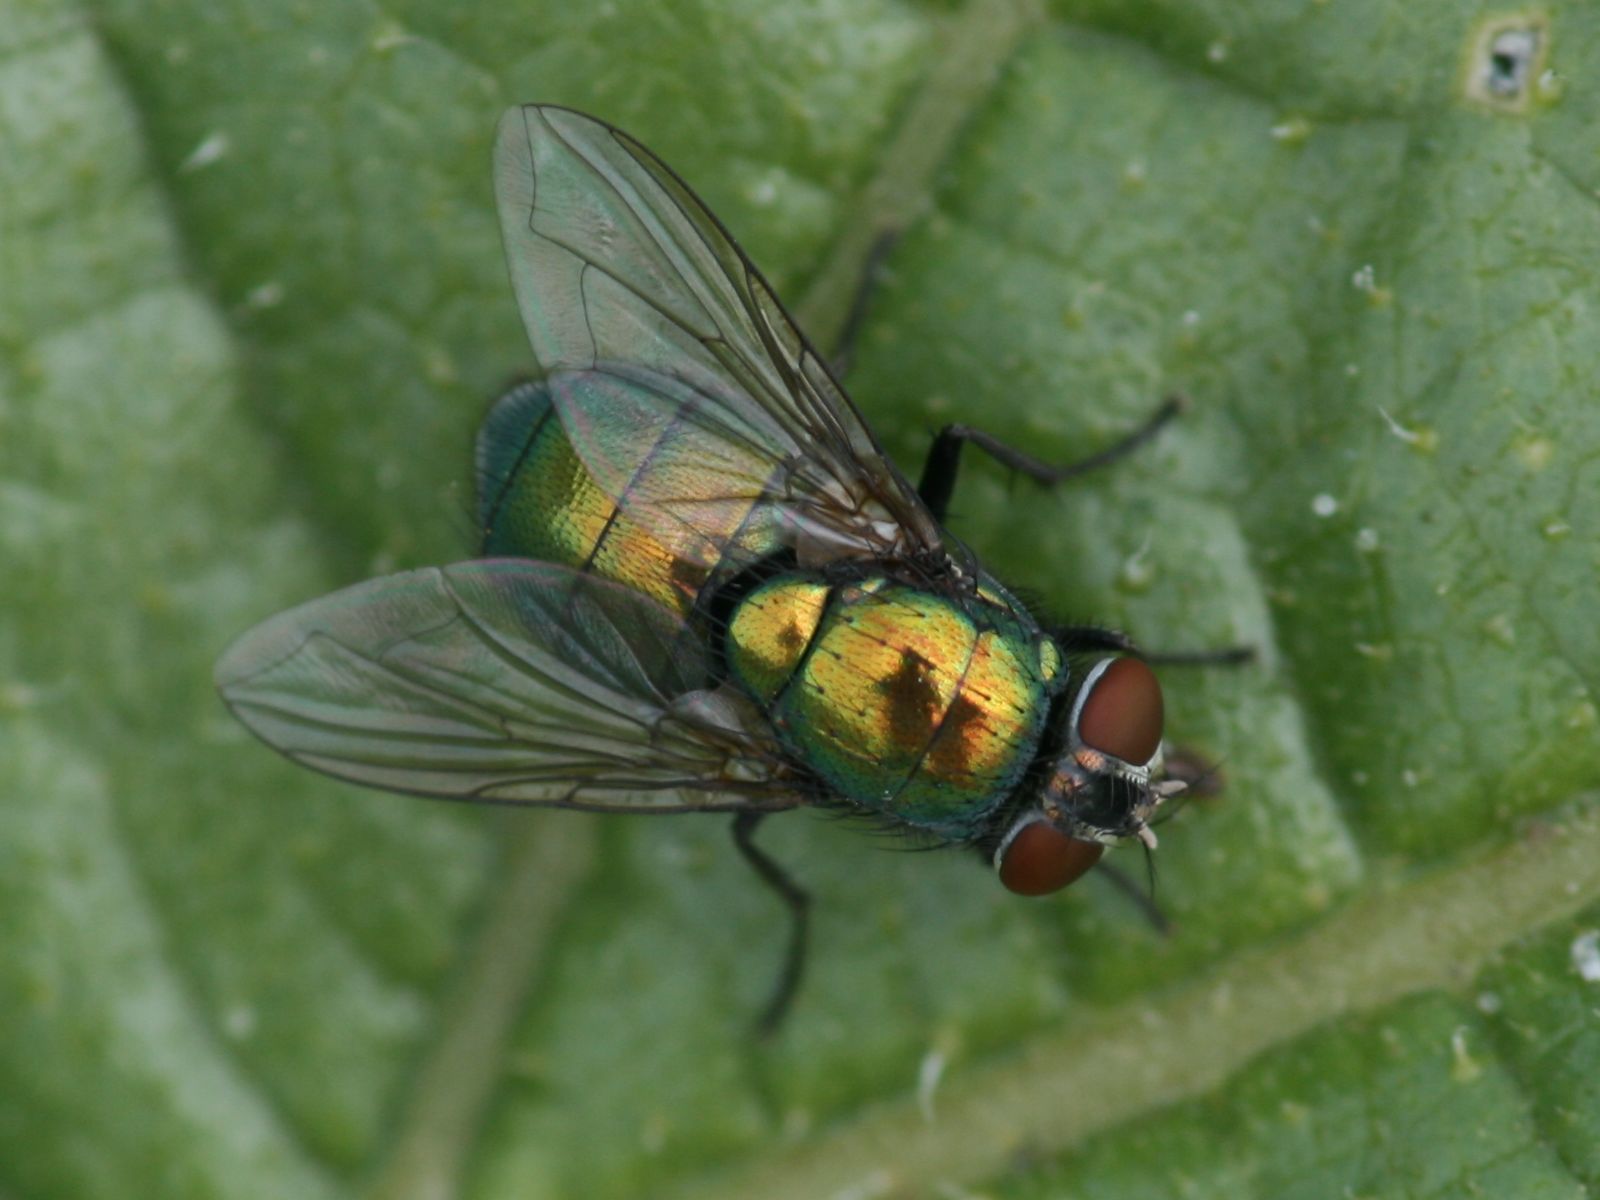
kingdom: Animalia
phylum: Arthropoda
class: Insecta
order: Diptera
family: Calliphoridae
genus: Lucilia
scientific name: Lucilia caesar
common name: Blow fly
